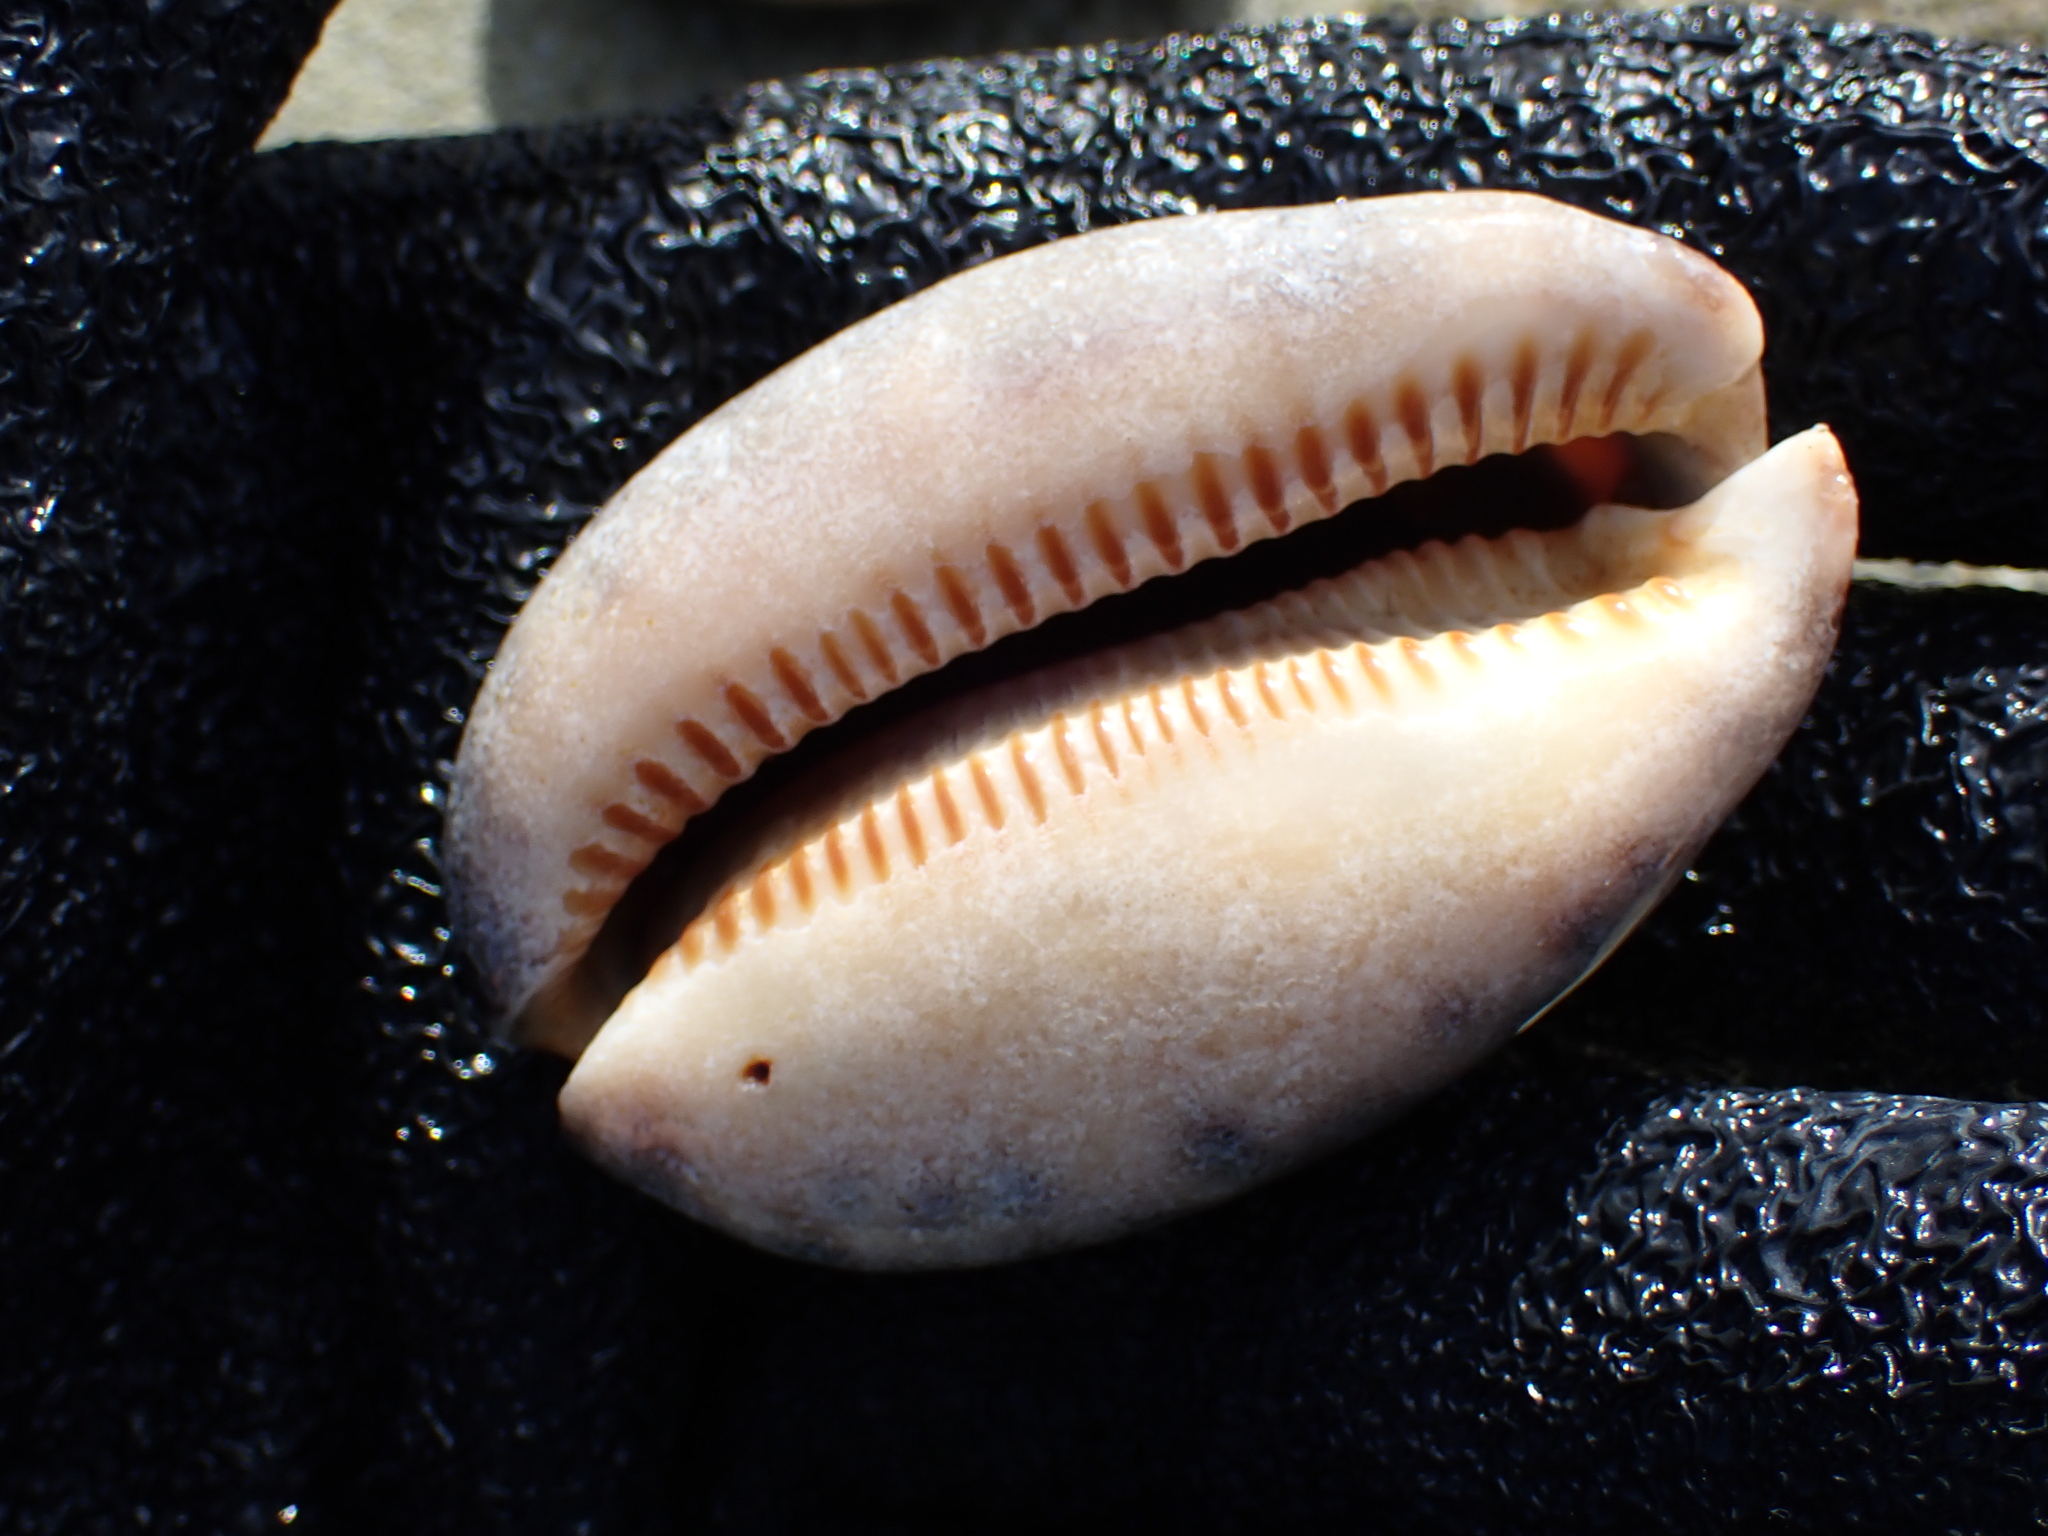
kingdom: Animalia
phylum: Mollusca
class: Gastropoda
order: Littorinimorpha
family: Cypraeidae
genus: Mauritia
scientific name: Mauritia arabica
